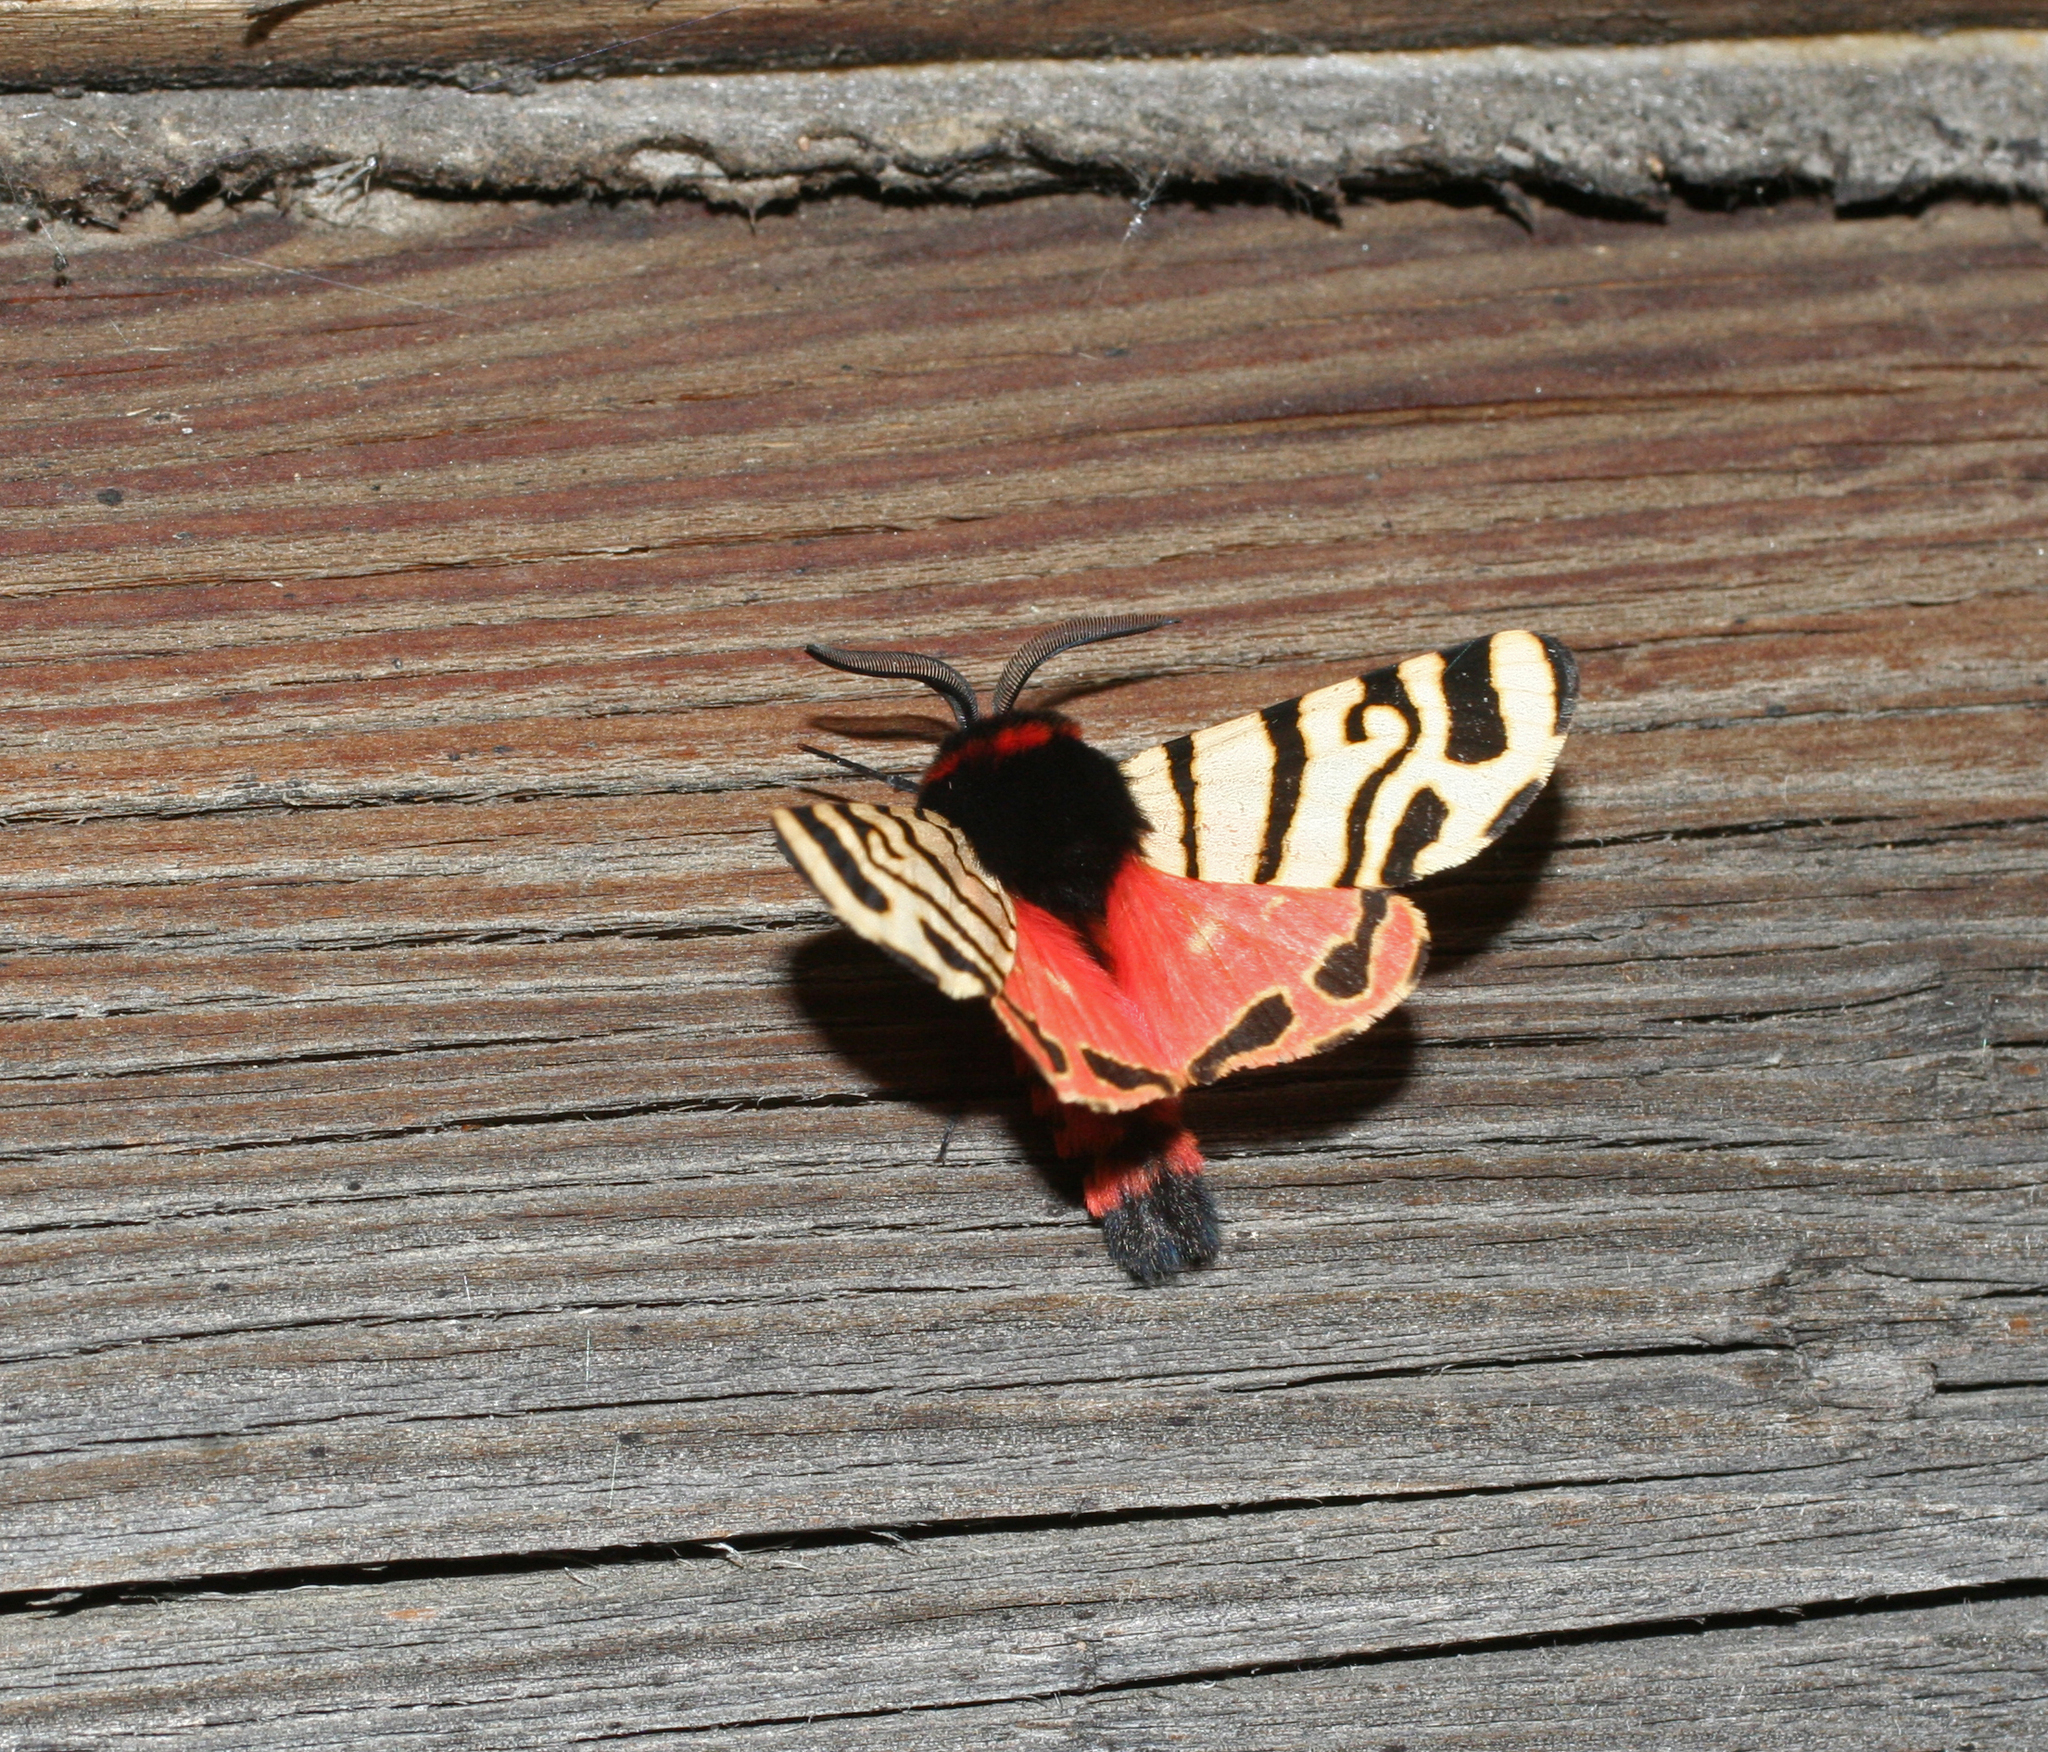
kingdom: Animalia
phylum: Arthropoda
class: Insecta
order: Lepidoptera
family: Erebidae
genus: Eucharia
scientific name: Eucharia festiva
